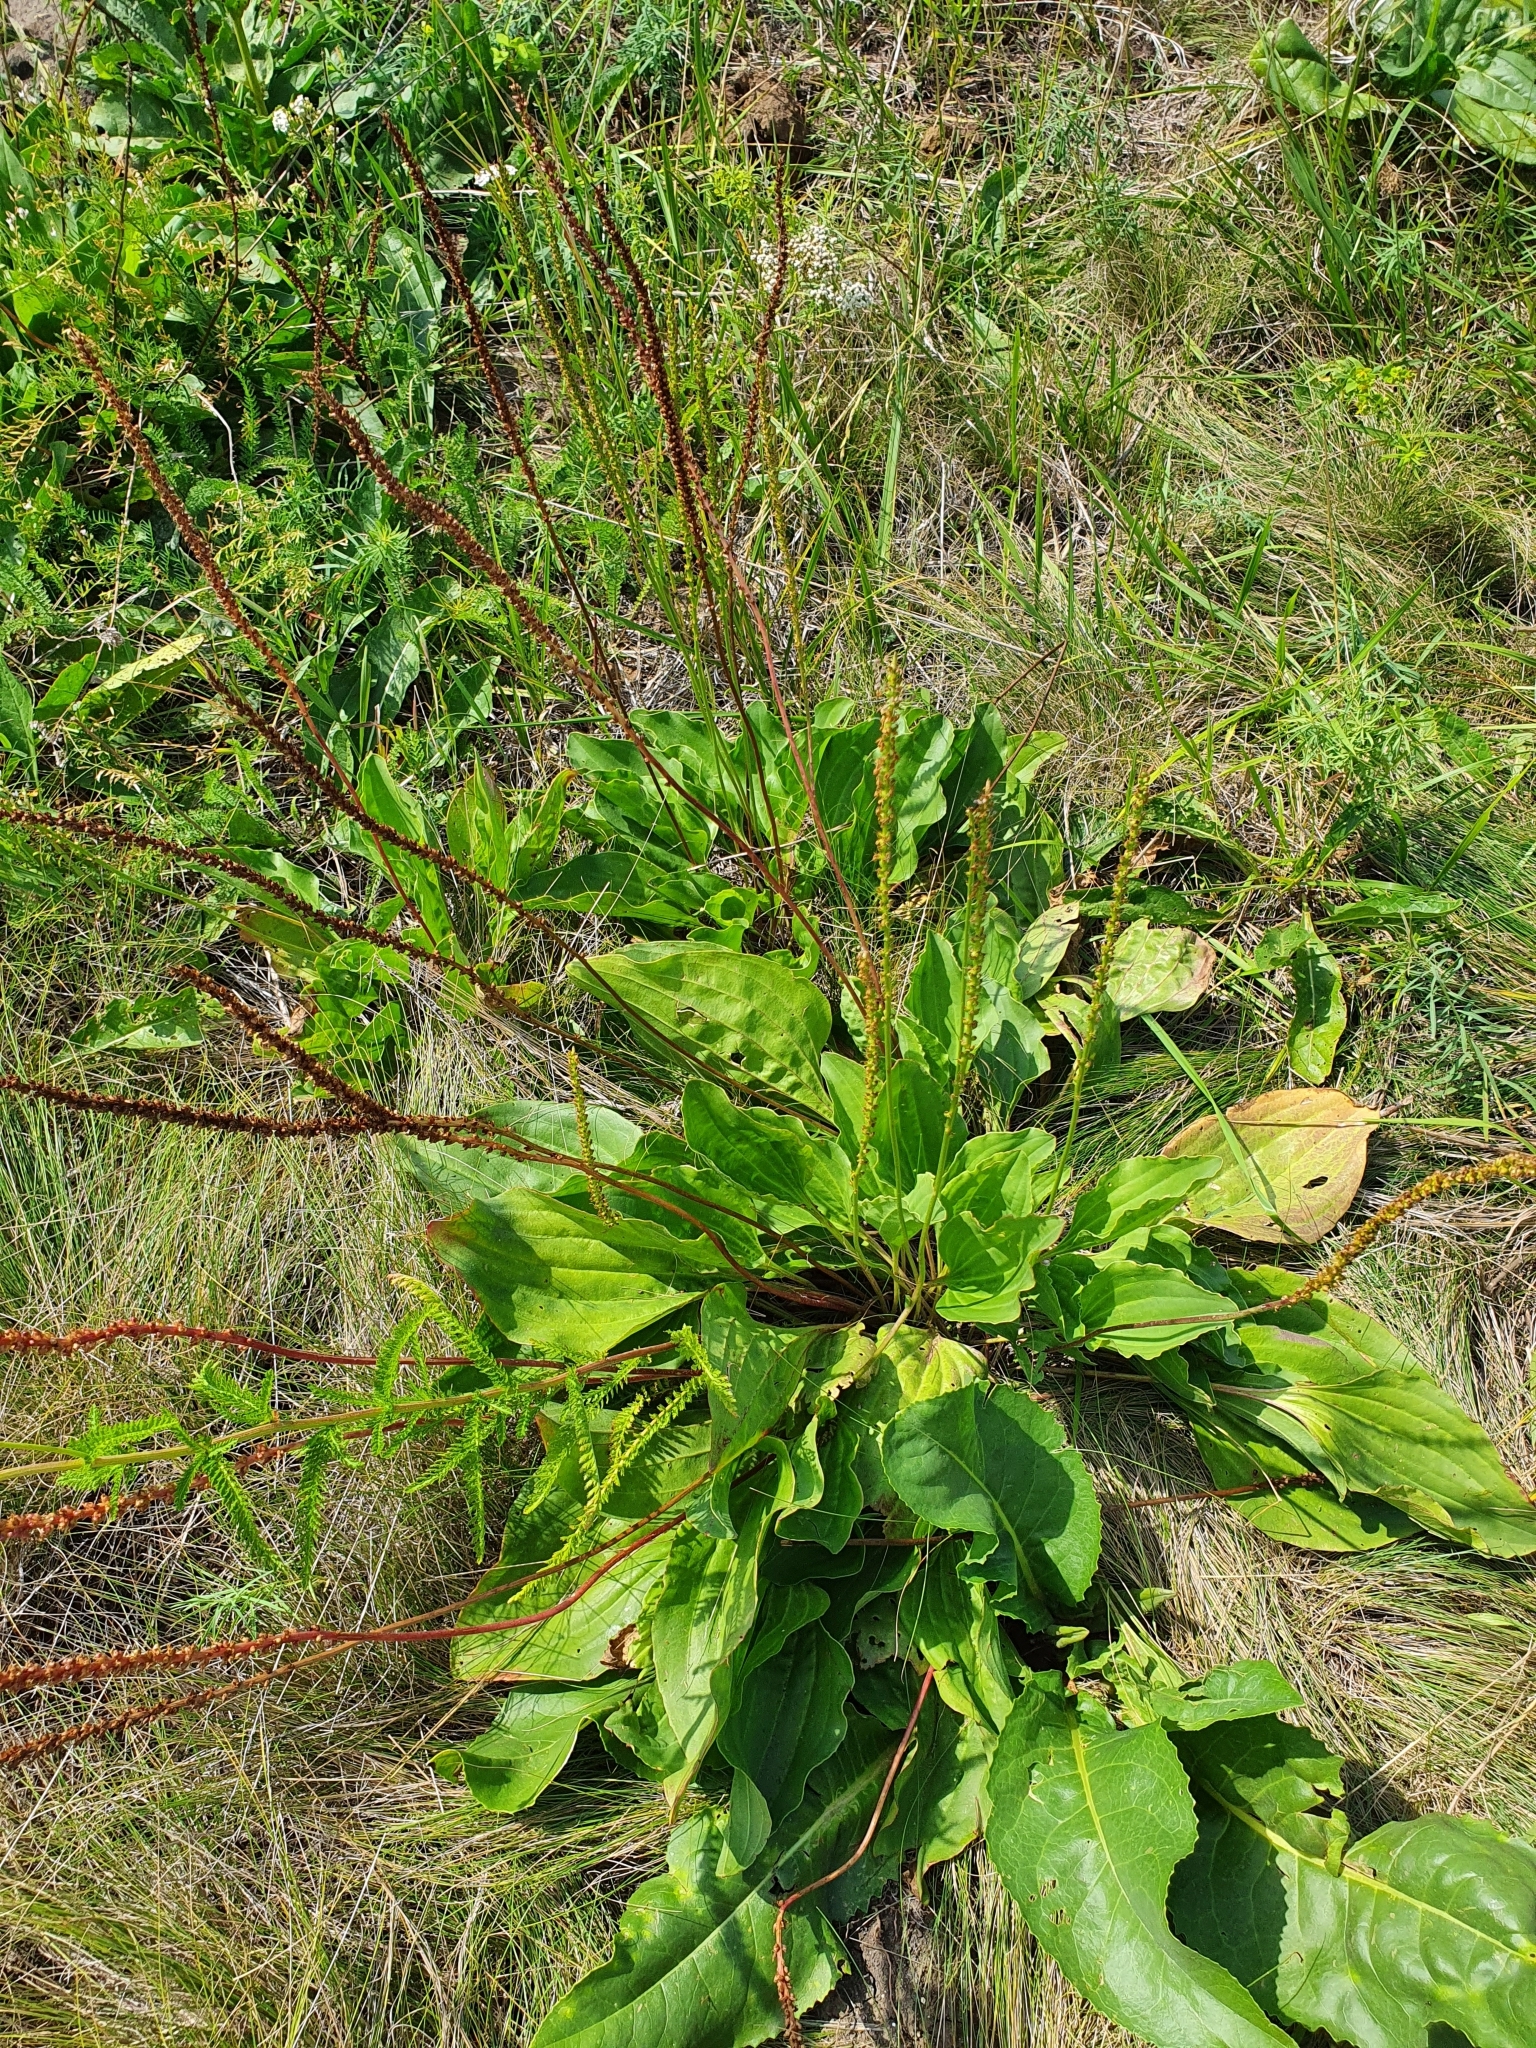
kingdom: Plantae
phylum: Tracheophyta
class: Magnoliopsida
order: Lamiales
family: Plantaginaceae
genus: Plantago
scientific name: Plantago cornuti
